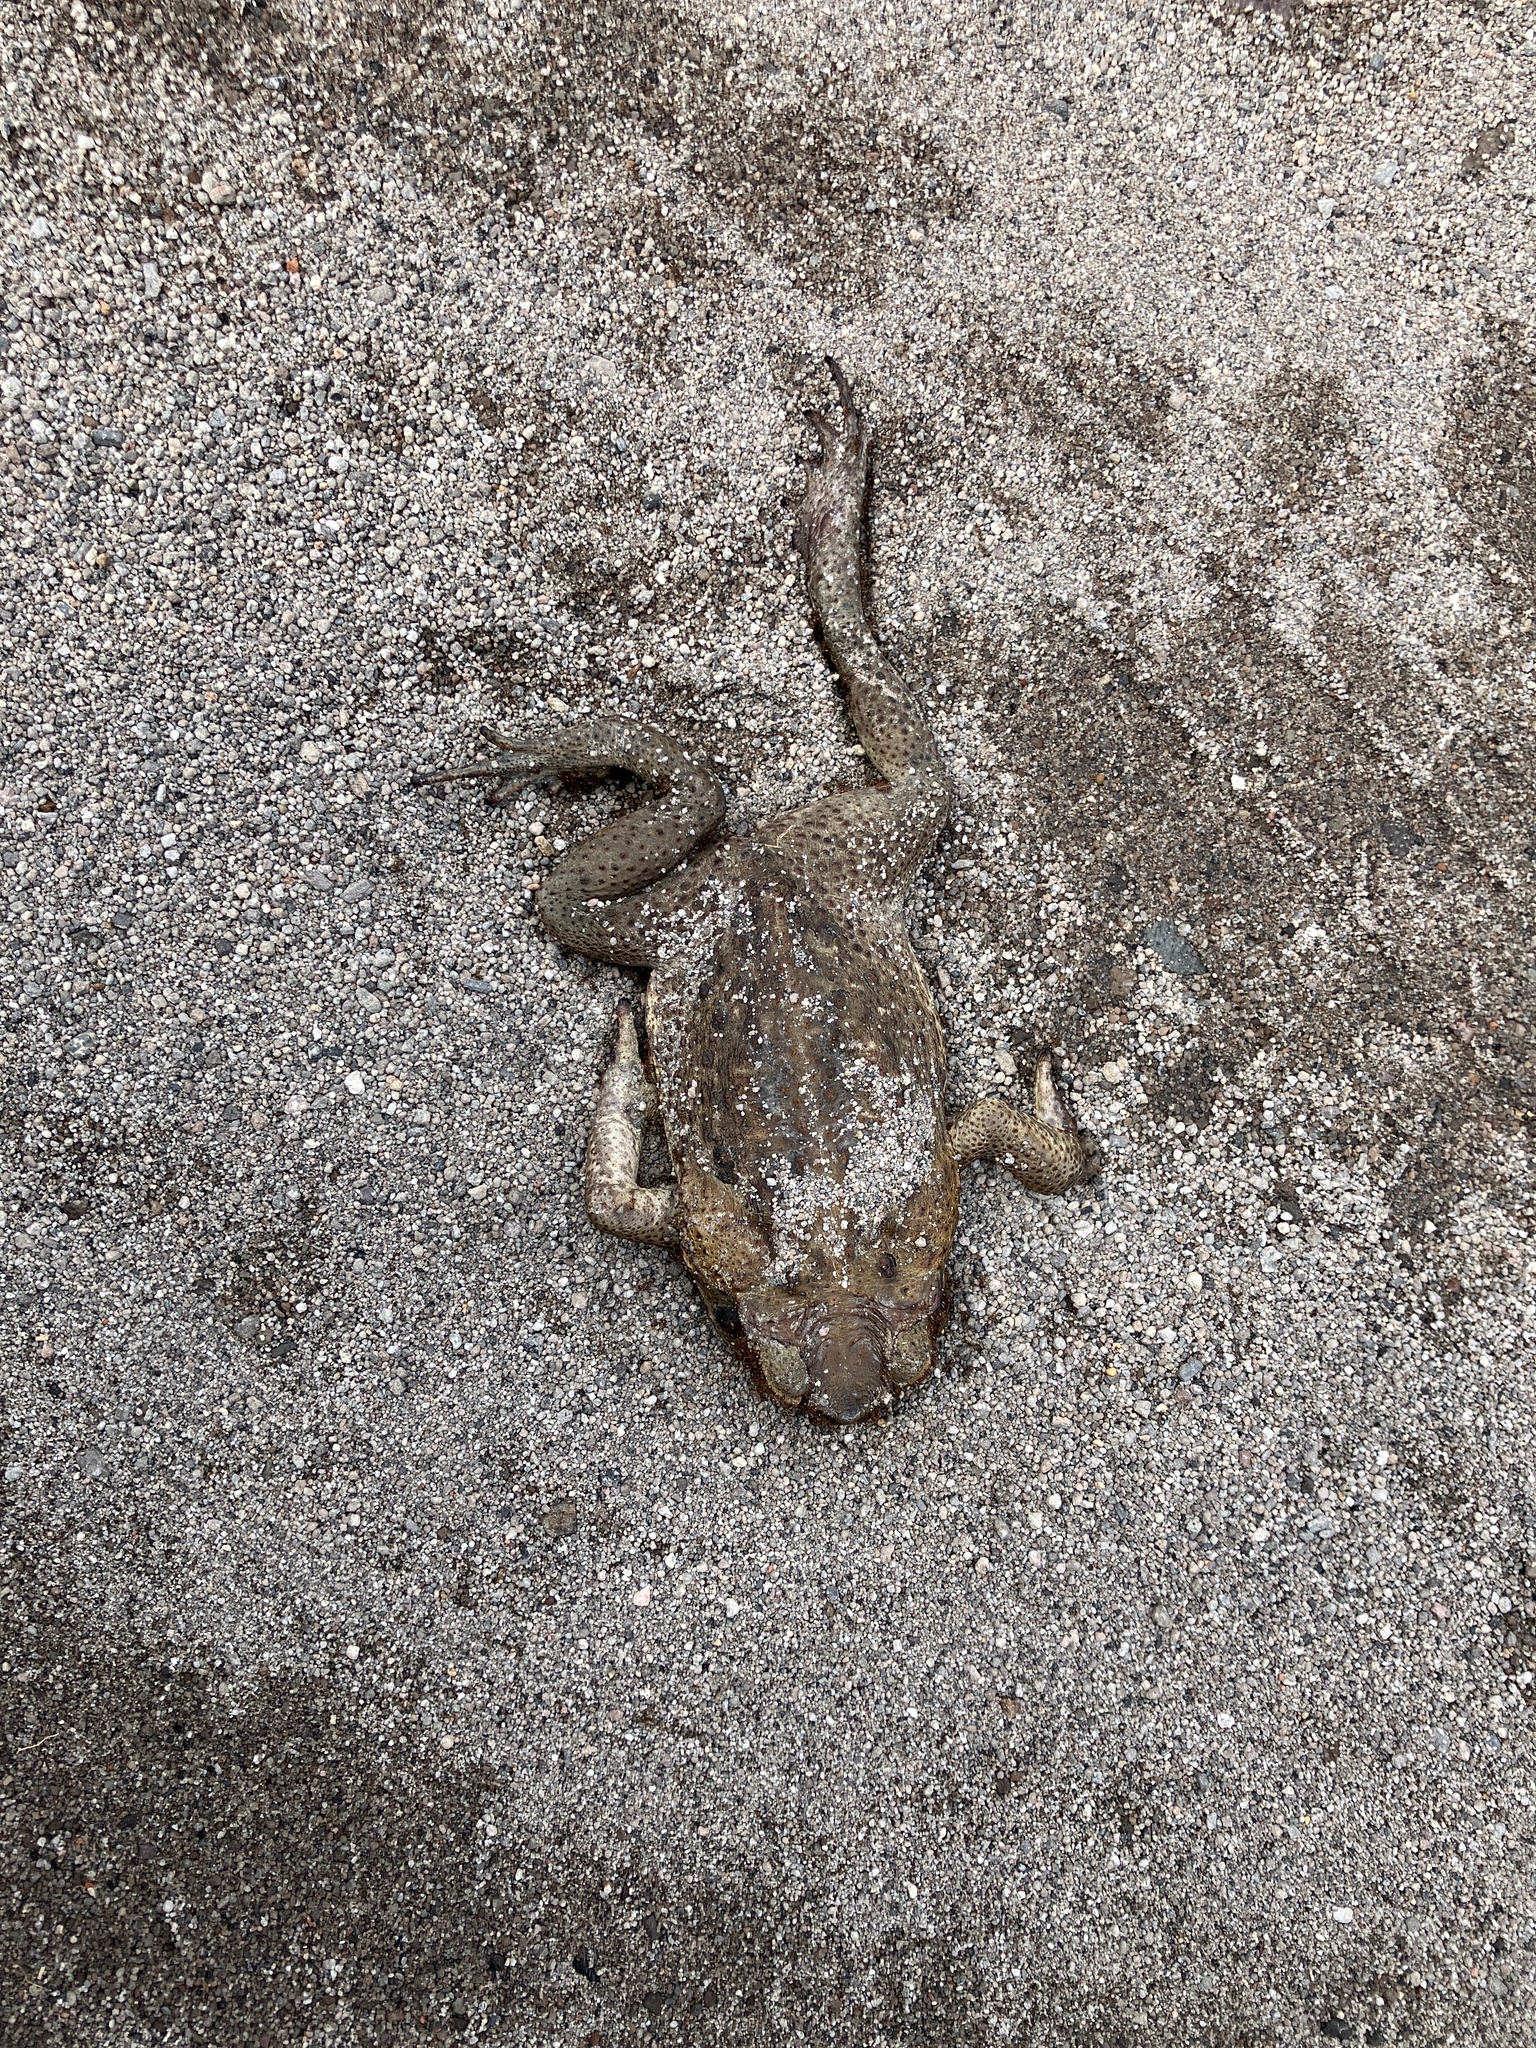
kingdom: Animalia
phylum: Chordata
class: Amphibia
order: Anura
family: Bufonidae
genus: Rhinella
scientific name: Rhinella marina
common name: Cane toad
